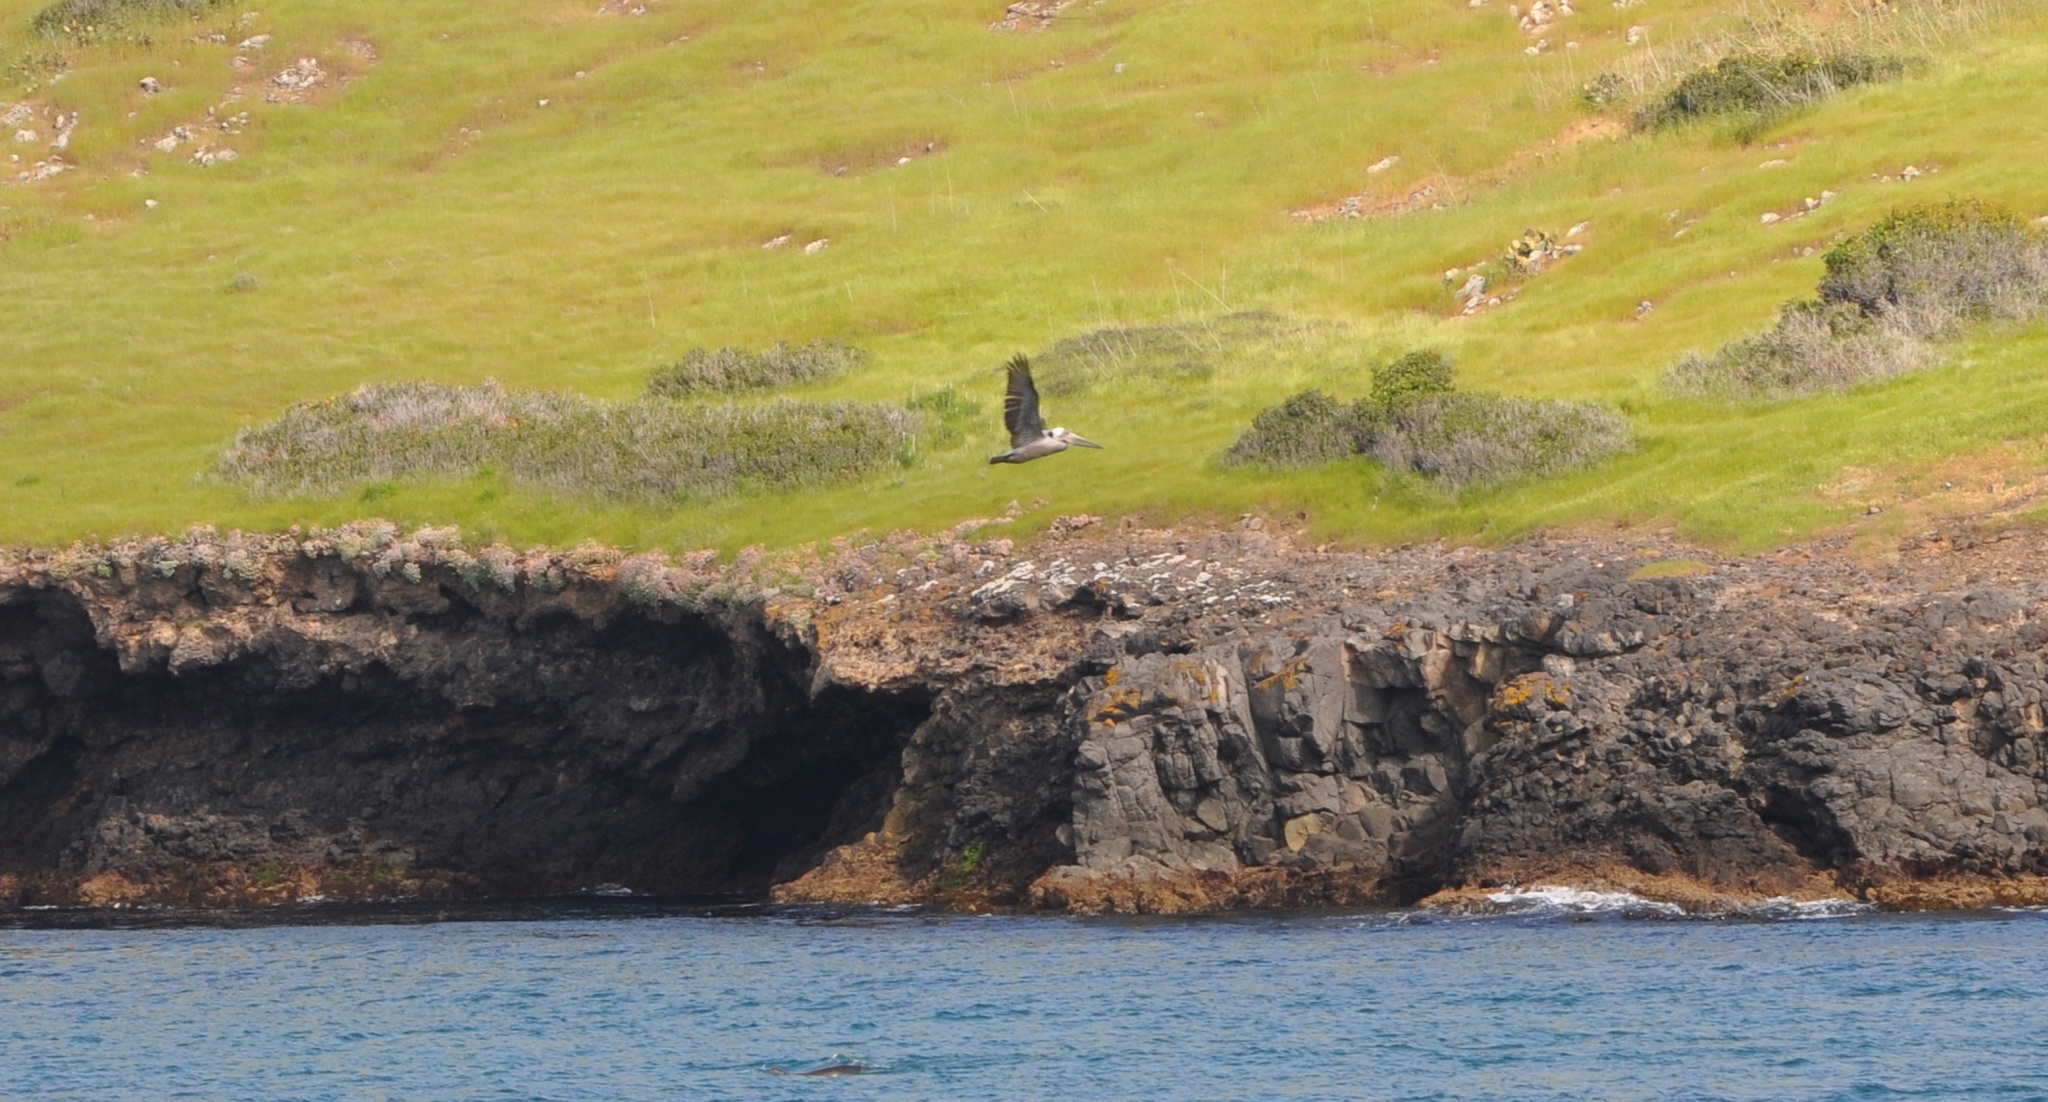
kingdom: Animalia
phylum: Chordata
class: Aves
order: Pelecaniformes
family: Pelecanidae
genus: Pelecanus
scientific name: Pelecanus occidentalis
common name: Brown pelican
